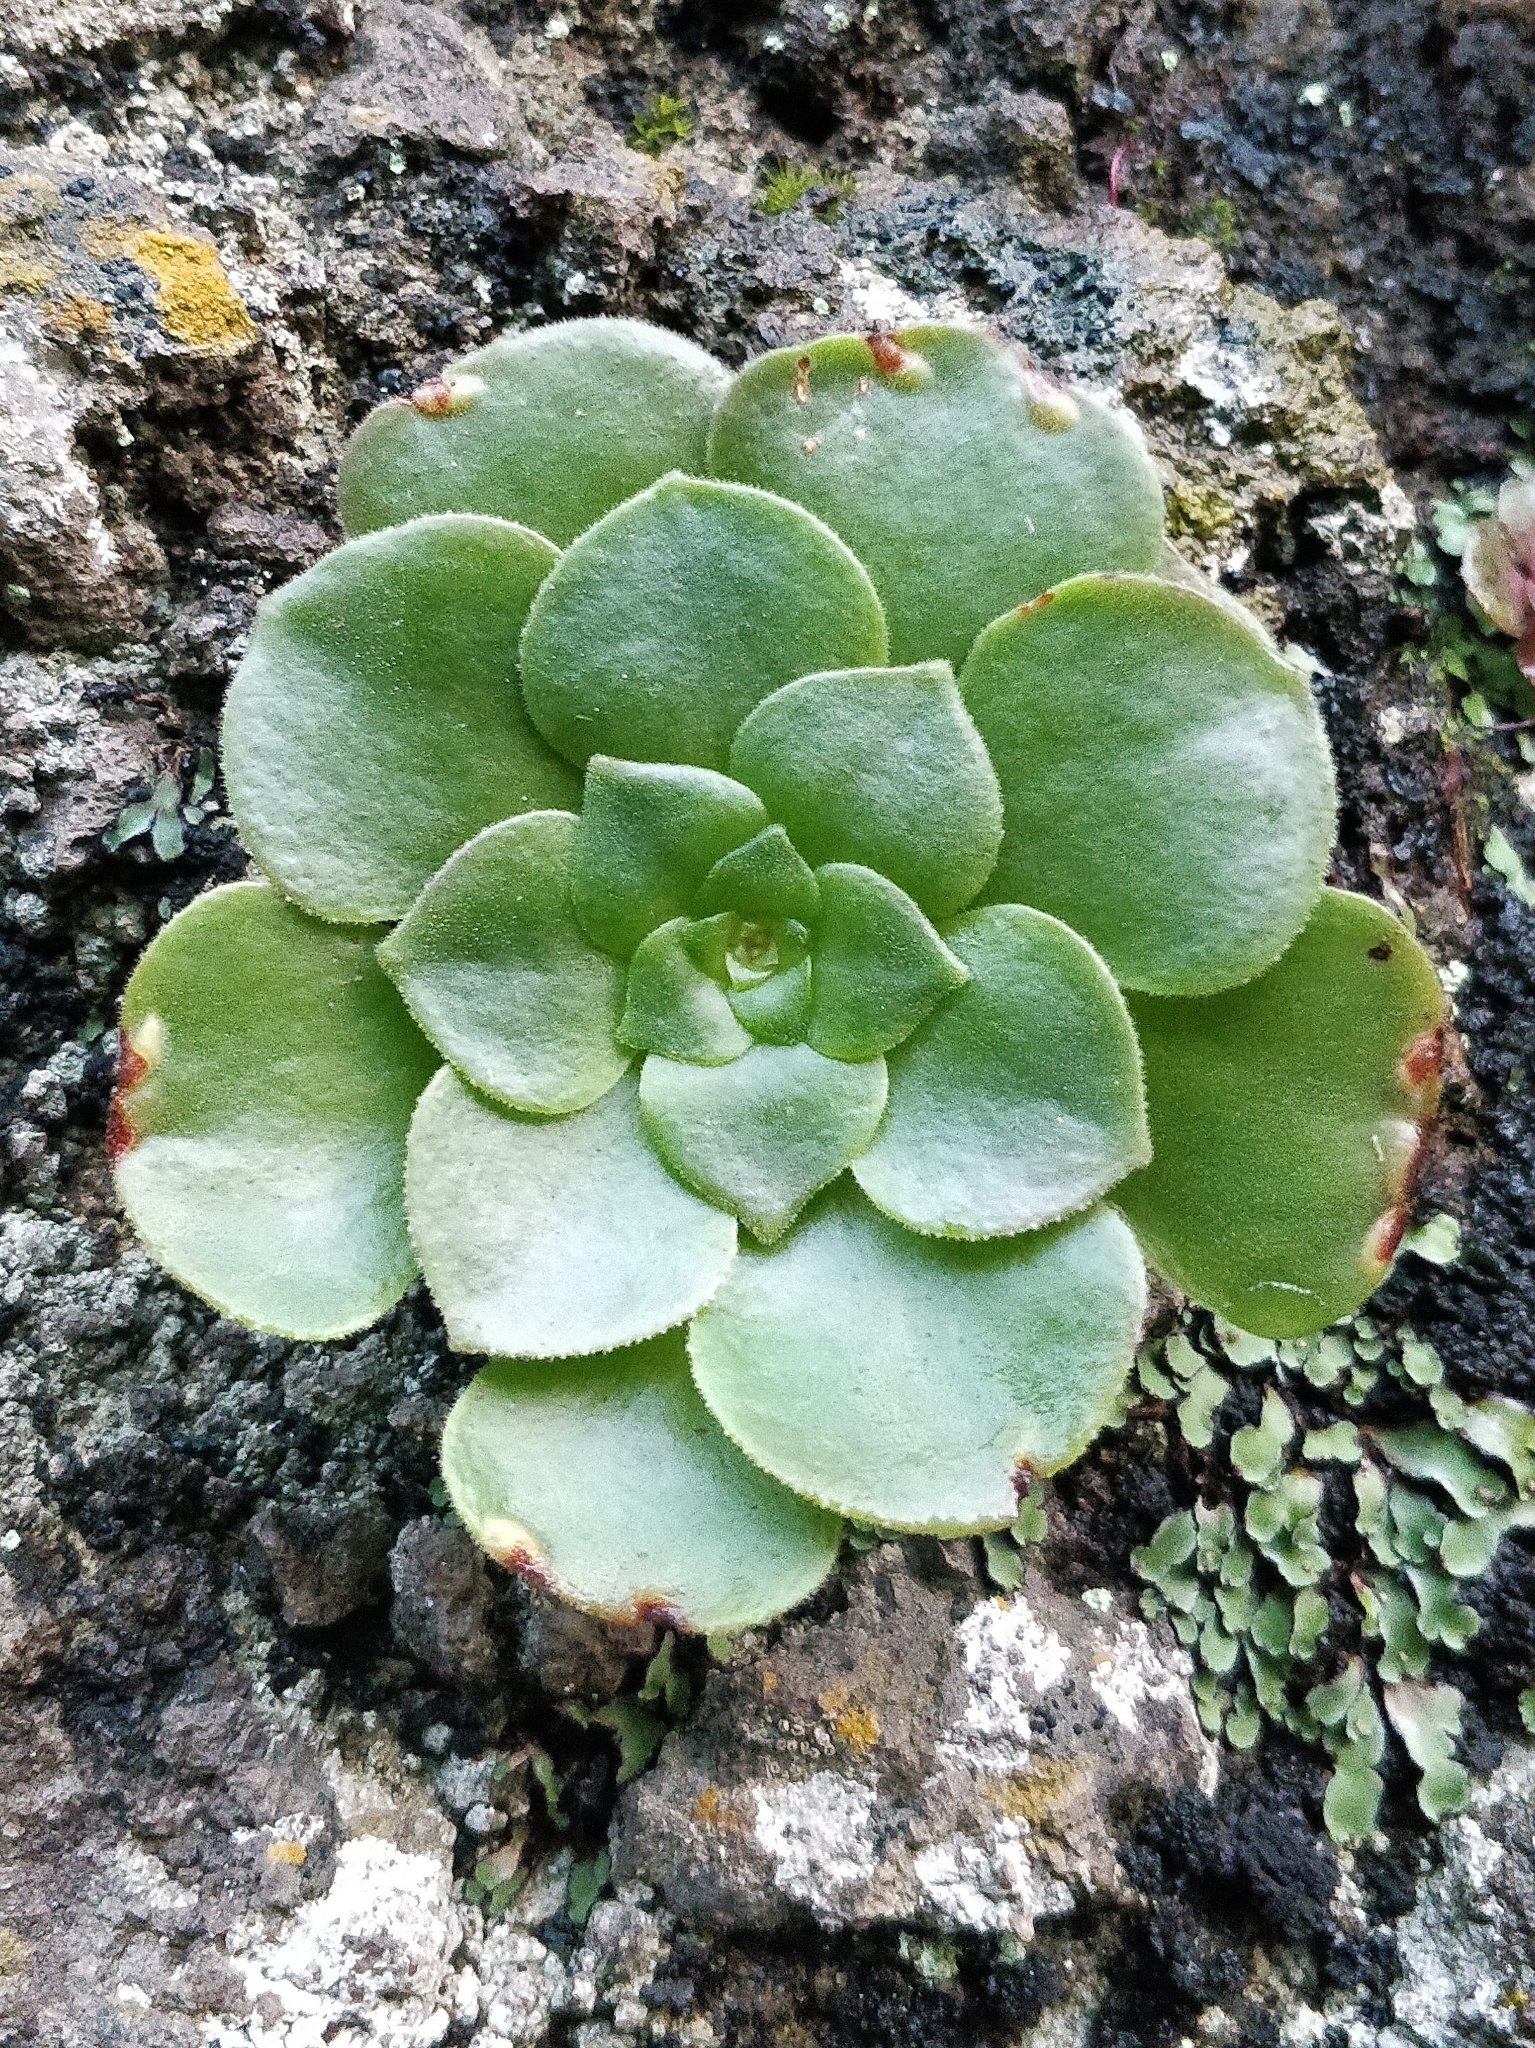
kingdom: Plantae
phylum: Tracheophyta
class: Magnoliopsida
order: Saxifragales
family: Crassulaceae
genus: Aeonium
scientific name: Aeonium glandulosum
